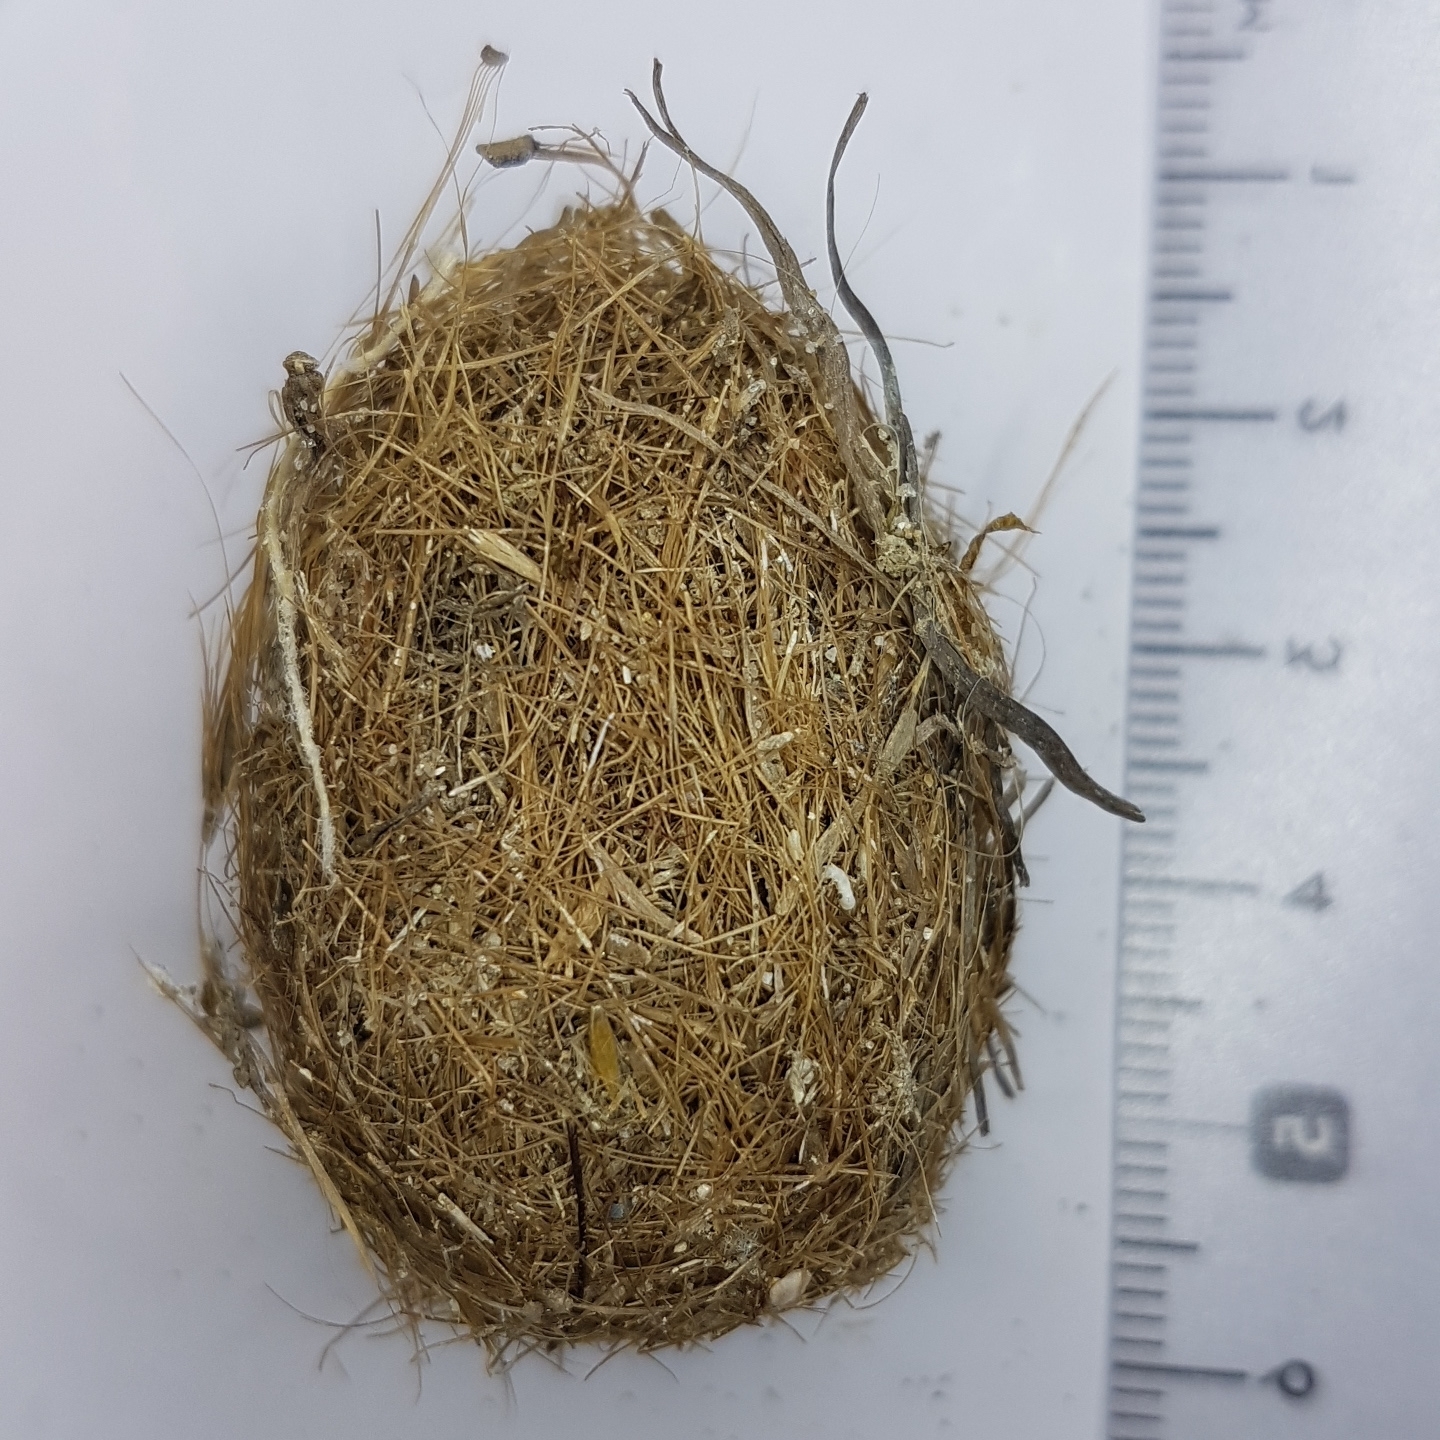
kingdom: Plantae
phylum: Tracheophyta
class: Liliopsida
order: Alismatales
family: Posidoniaceae
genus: Posidonia
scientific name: Posidonia oceanica
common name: Mediterranean tapeweed
